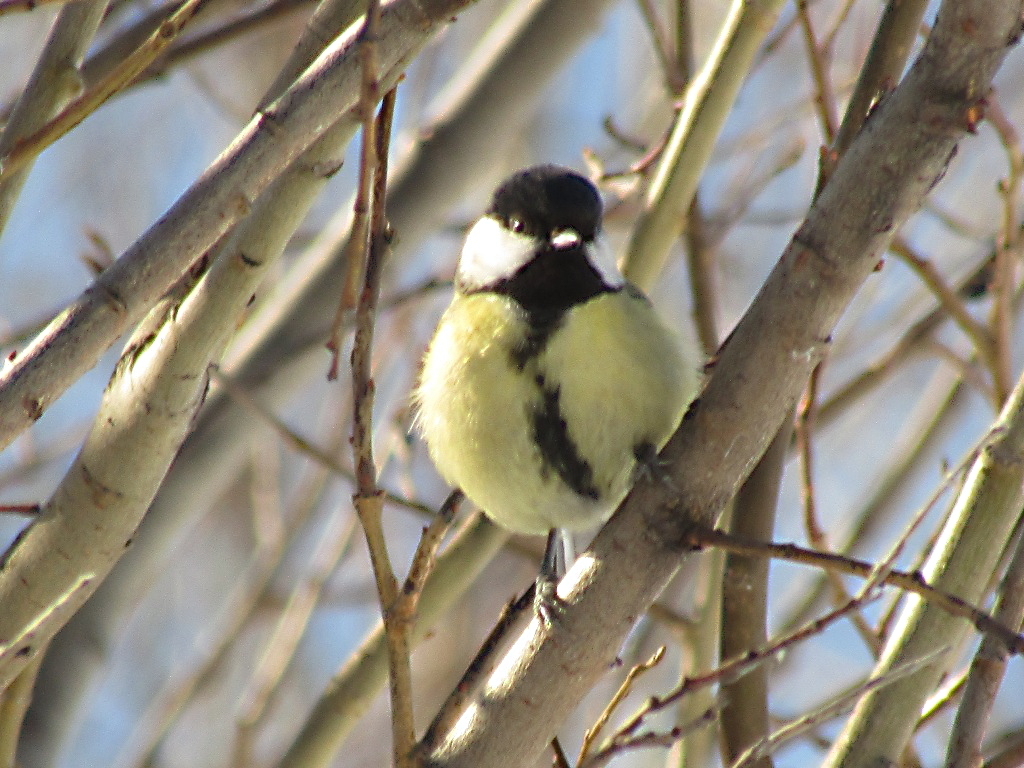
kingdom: Animalia
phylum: Chordata
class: Aves
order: Passeriformes
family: Paridae
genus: Parus
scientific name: Parus major
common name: Great tit
